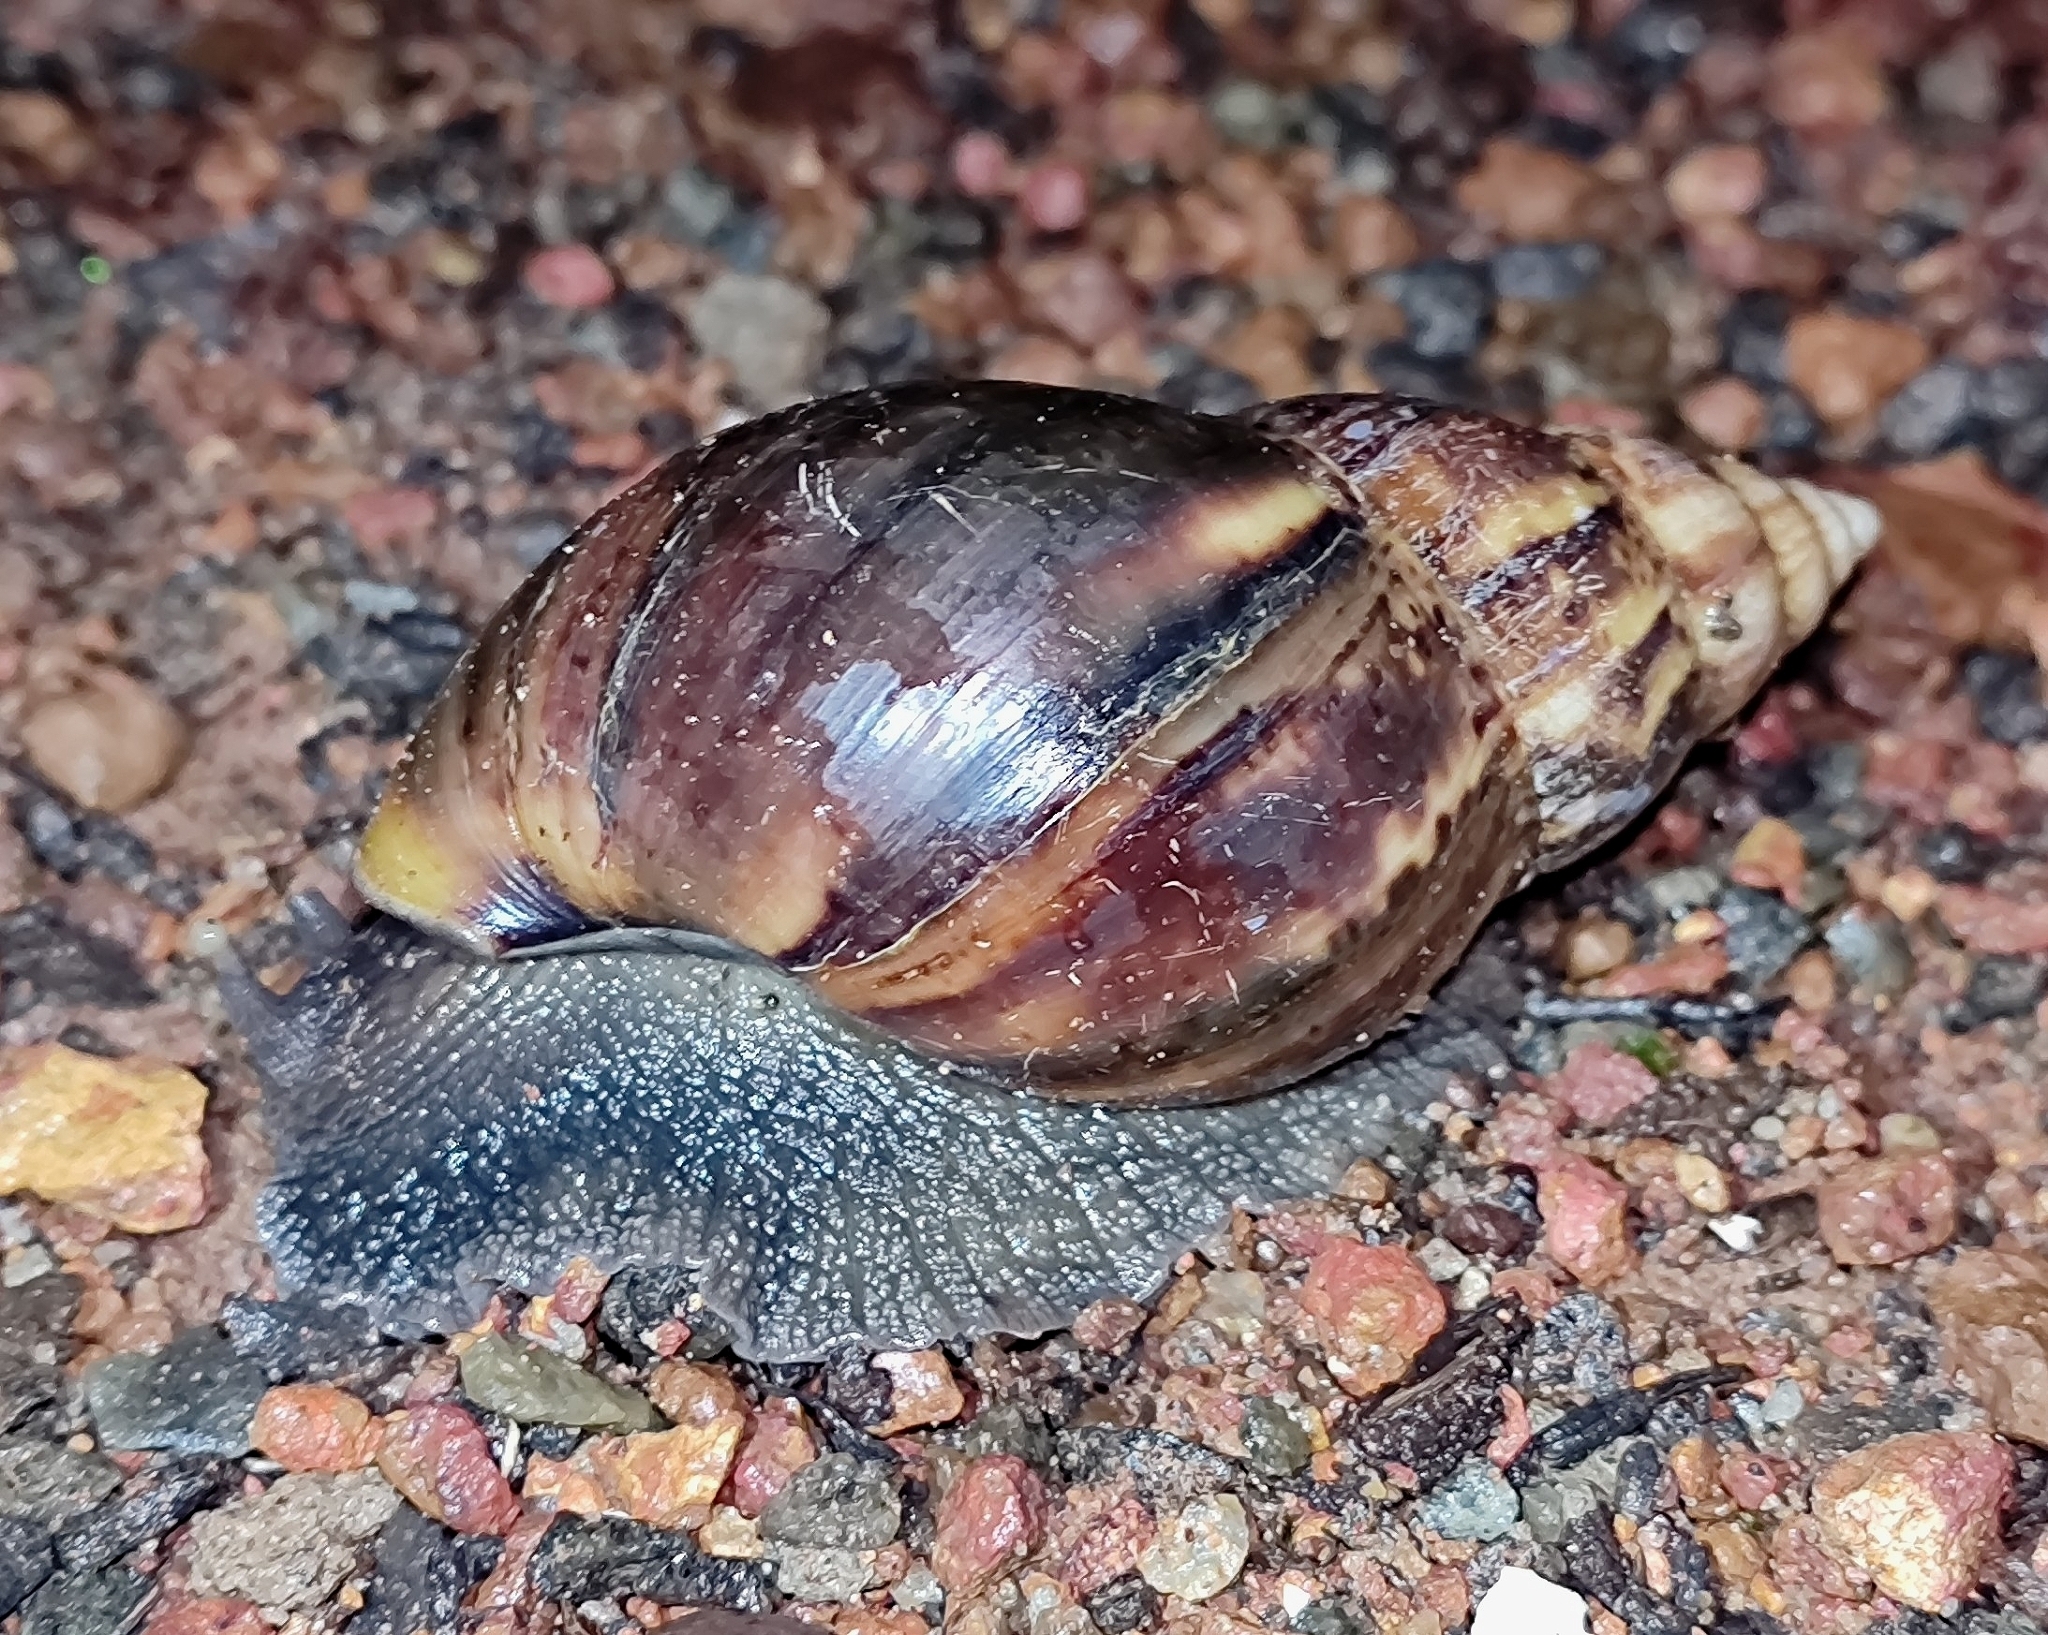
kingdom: Animalia
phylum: Mollusca
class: Gastropoda
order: Stylommatophora
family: Achatinidae
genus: Lissachatina
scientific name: Lissachatina fulica
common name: Giant african snail
